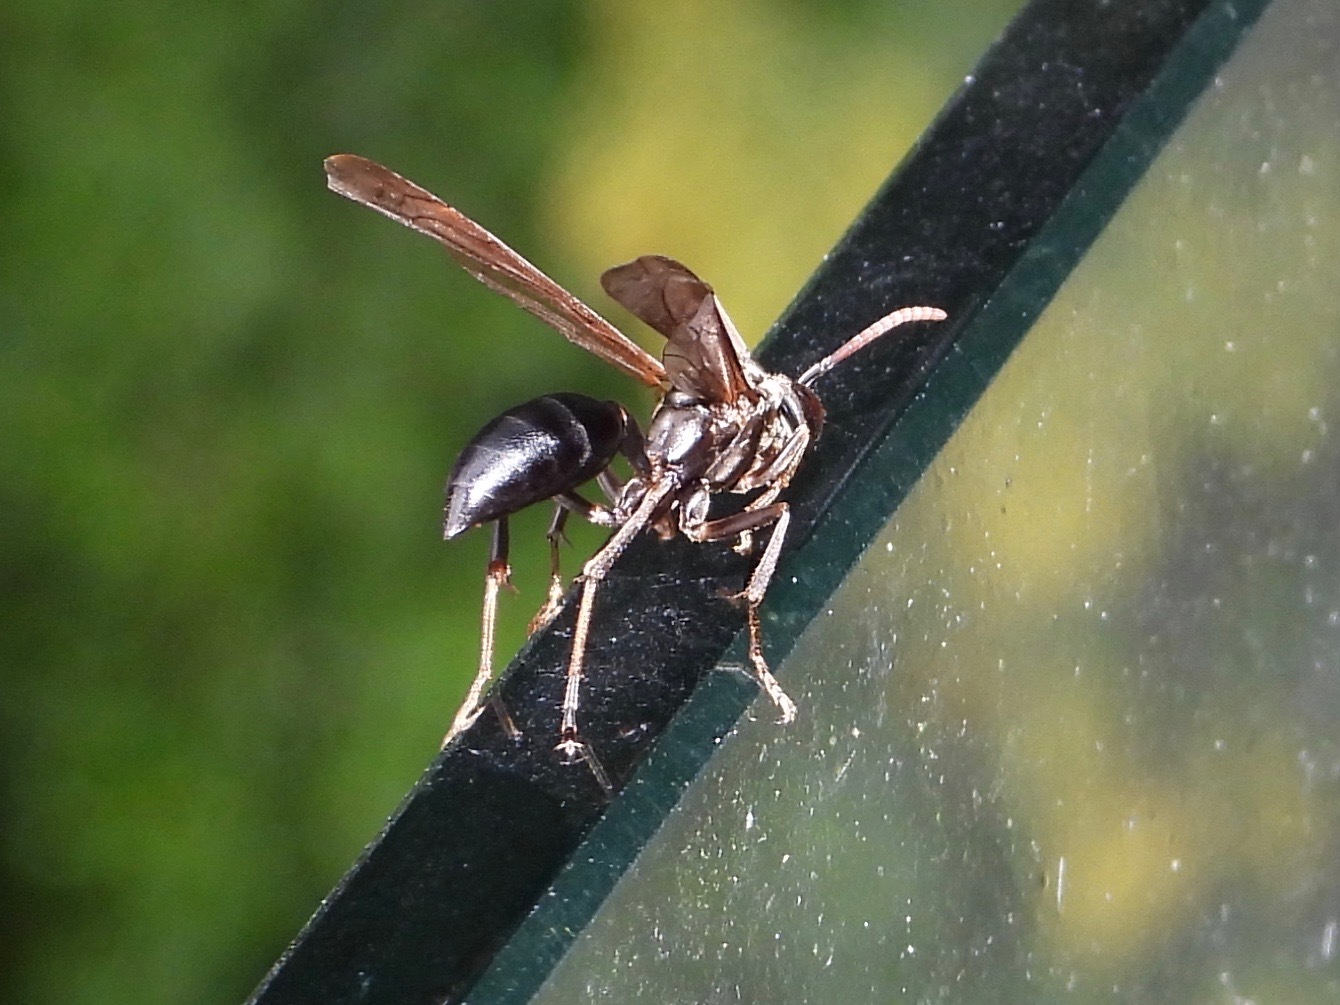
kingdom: Animalia
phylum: Arthropoda
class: Insecta
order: Hymenoptera
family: Vespidae
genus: Agelaia
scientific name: Agelaia panamensis
